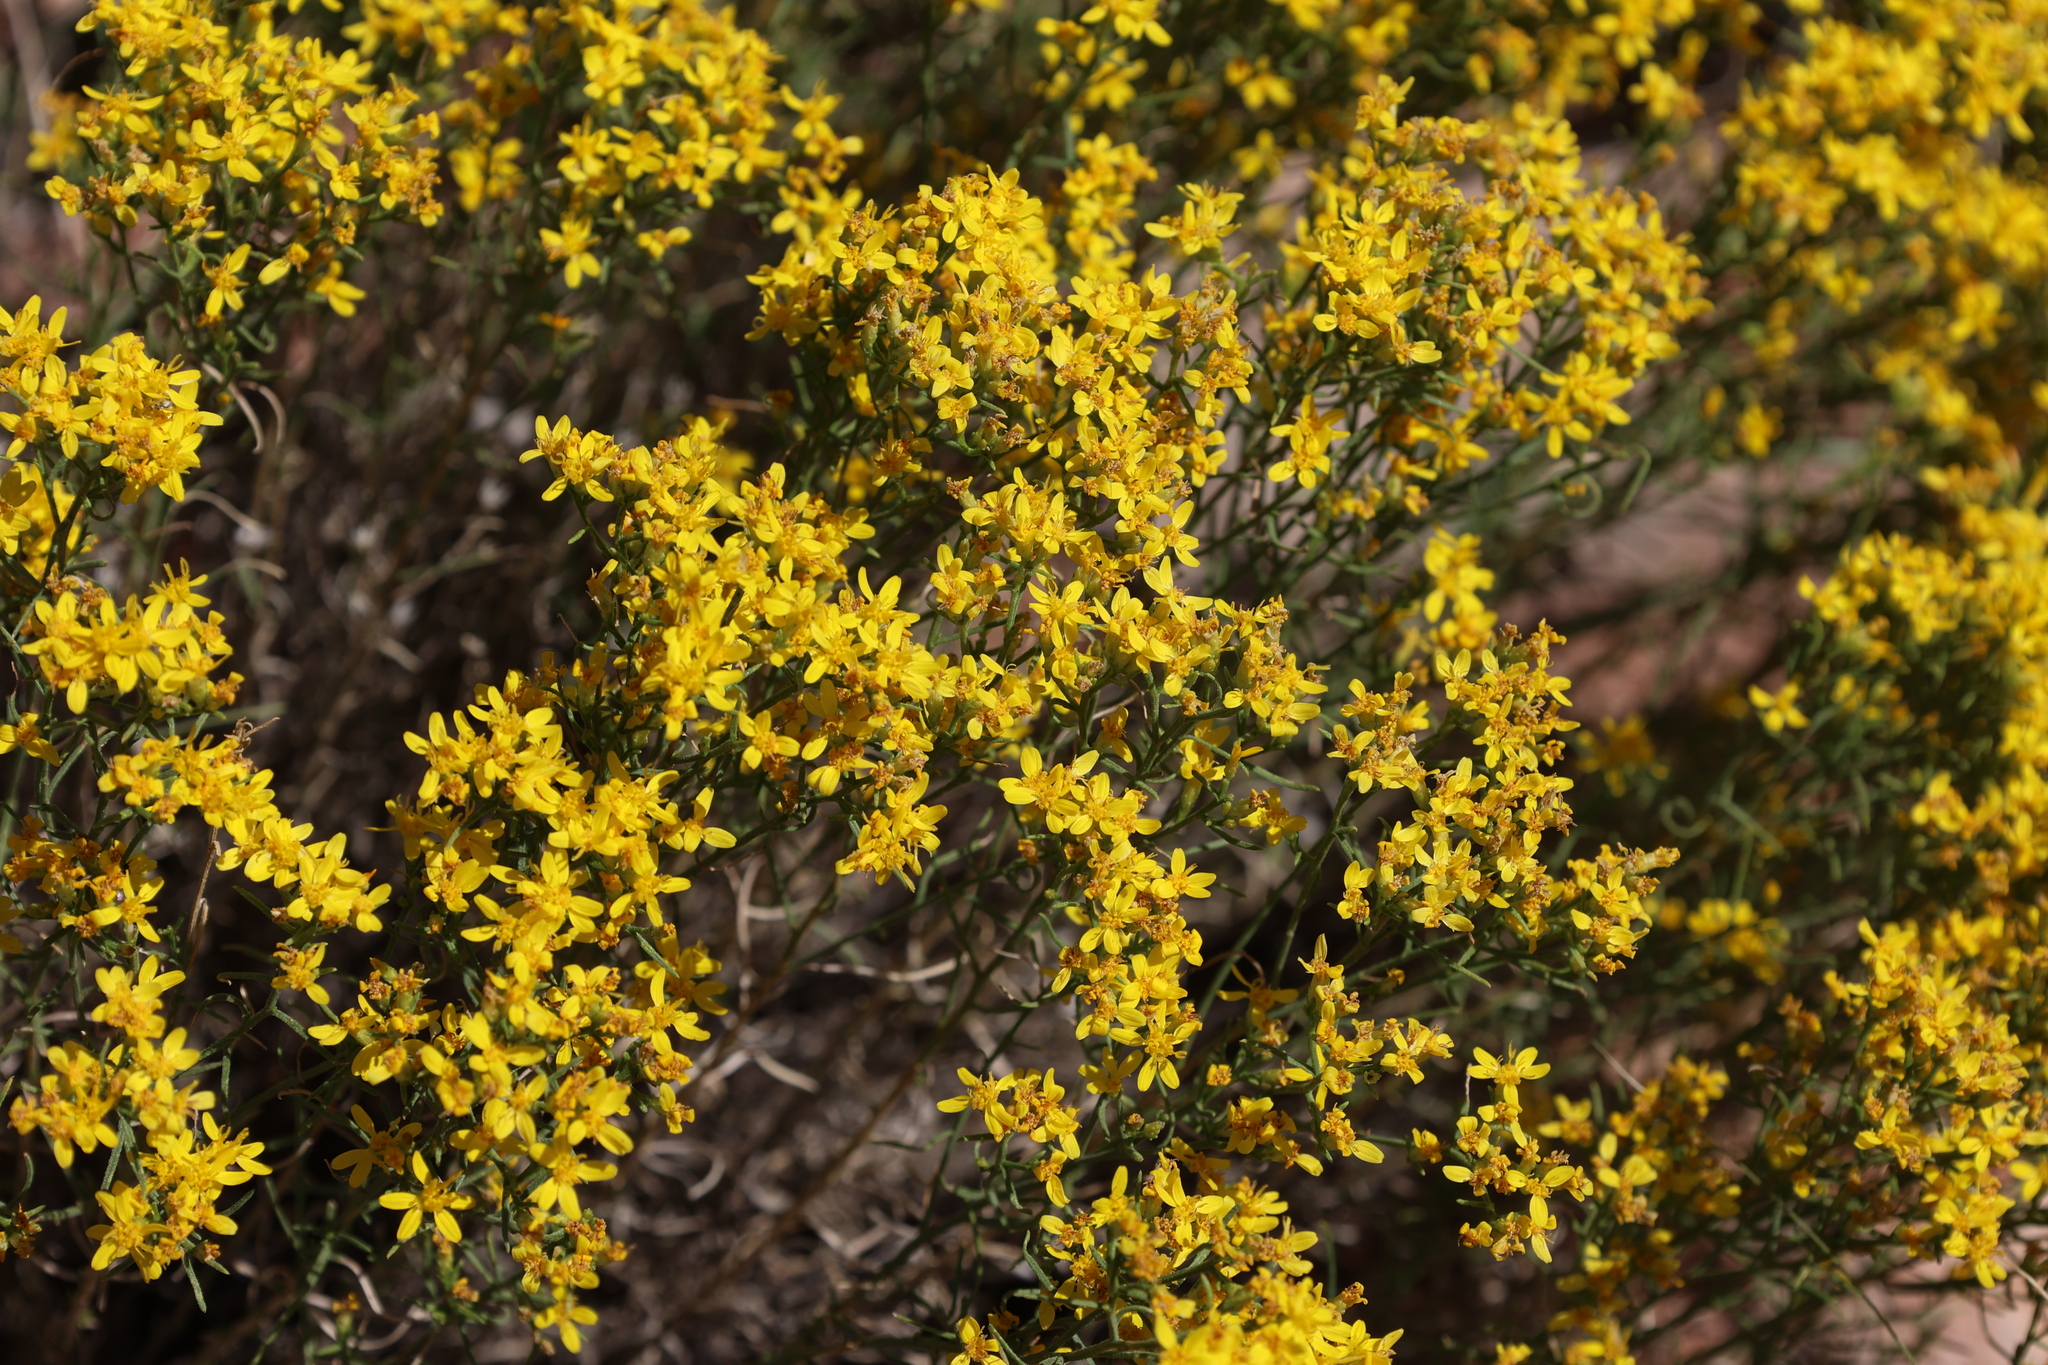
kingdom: Plantae
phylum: Tracheophyta
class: Magnoliopsida
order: Asterales
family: Asteraceae
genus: Gutierrezia
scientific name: Gutierrezia sarothrae
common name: Broom snakeweed
